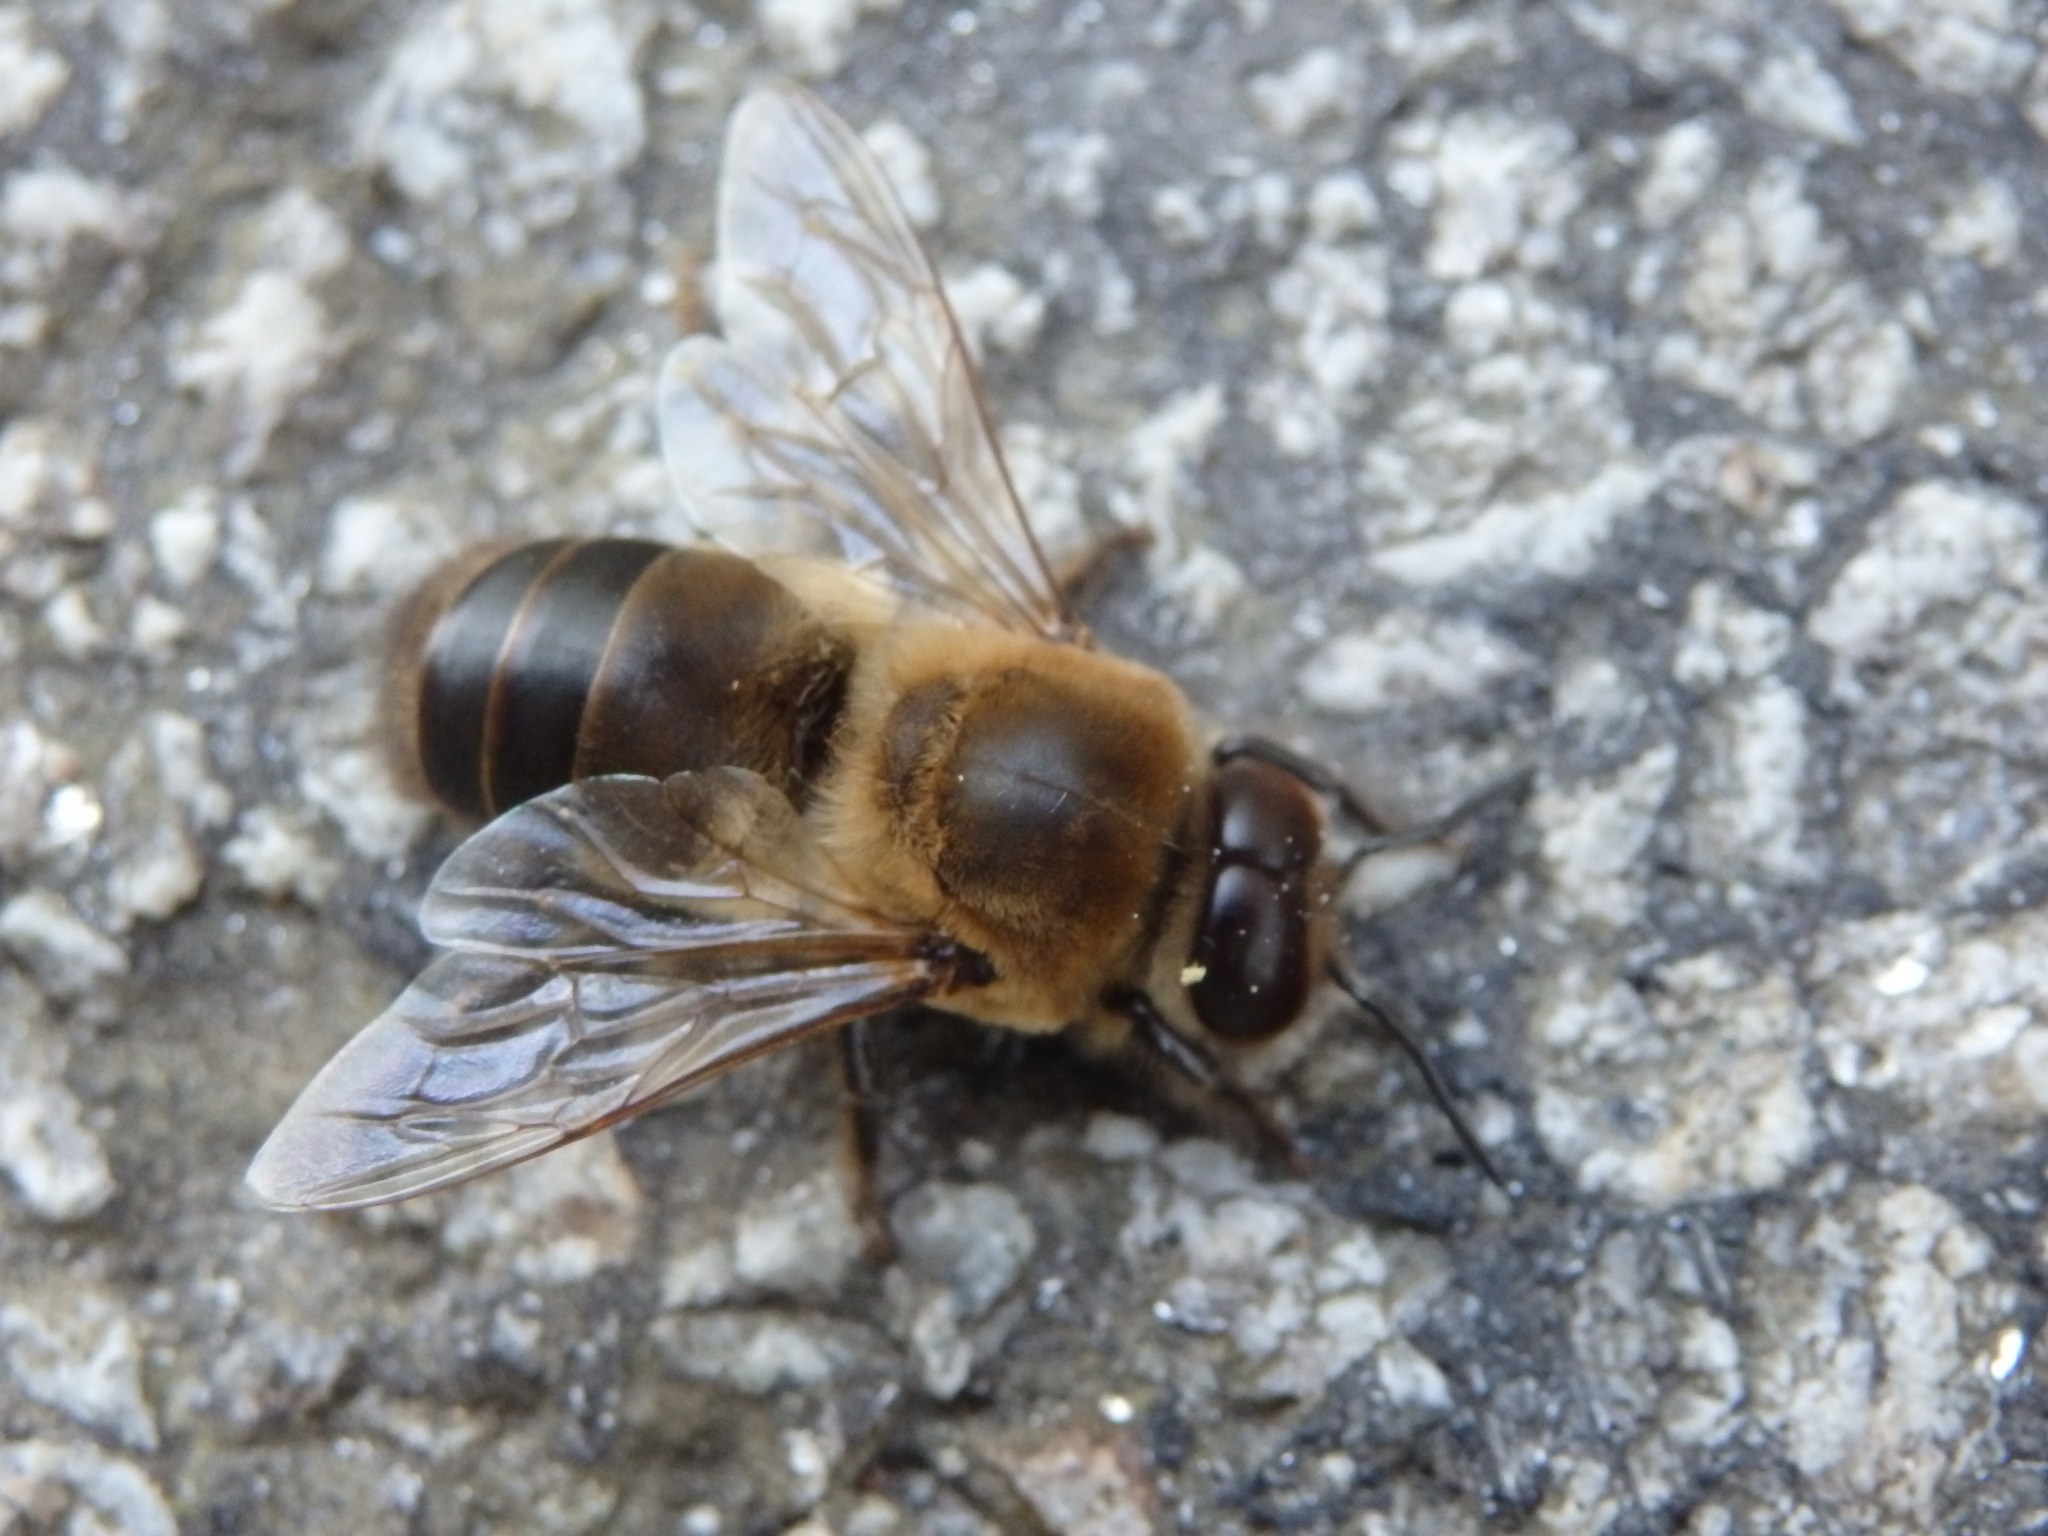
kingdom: Animalia
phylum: Arthropoda
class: Insecta
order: Hymenoptera
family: Apidae
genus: Apis
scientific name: Apis mellifera
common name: Honey bee
